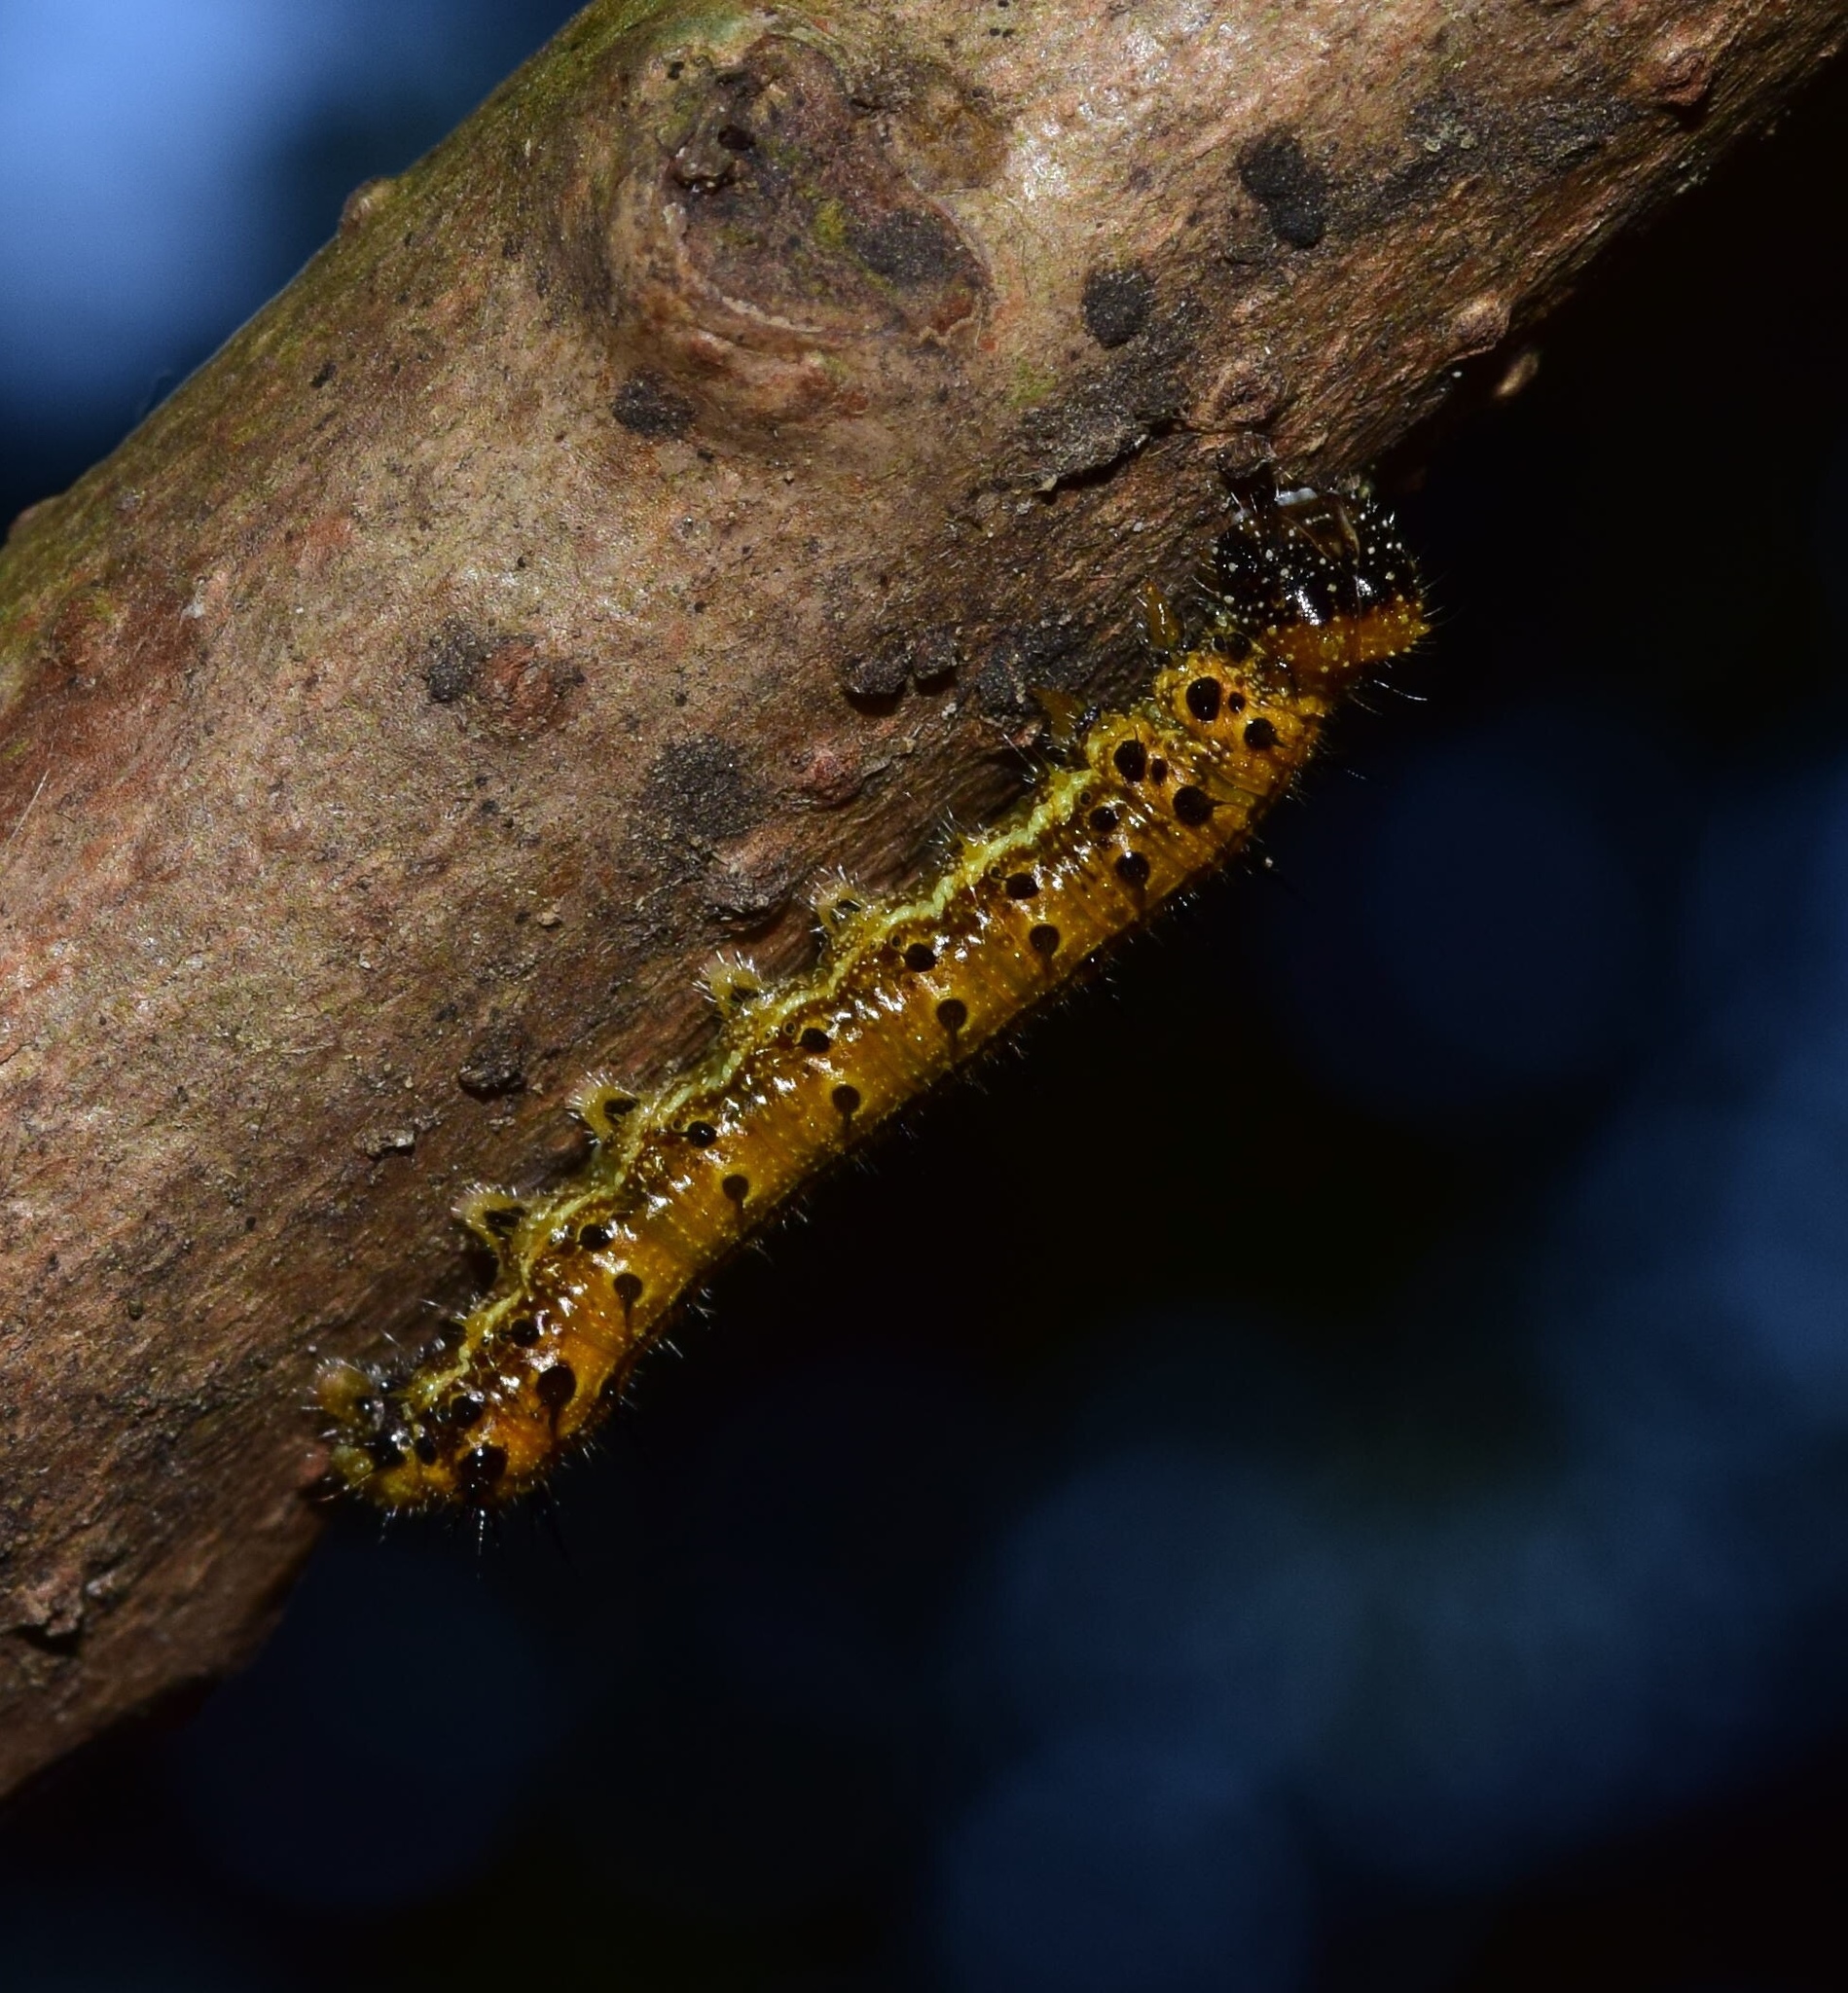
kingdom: Animalia
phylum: Arthropoda
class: Insecta
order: Lepidoptera
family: Nymphalidae
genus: Asterope
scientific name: Asterope boisduvali
